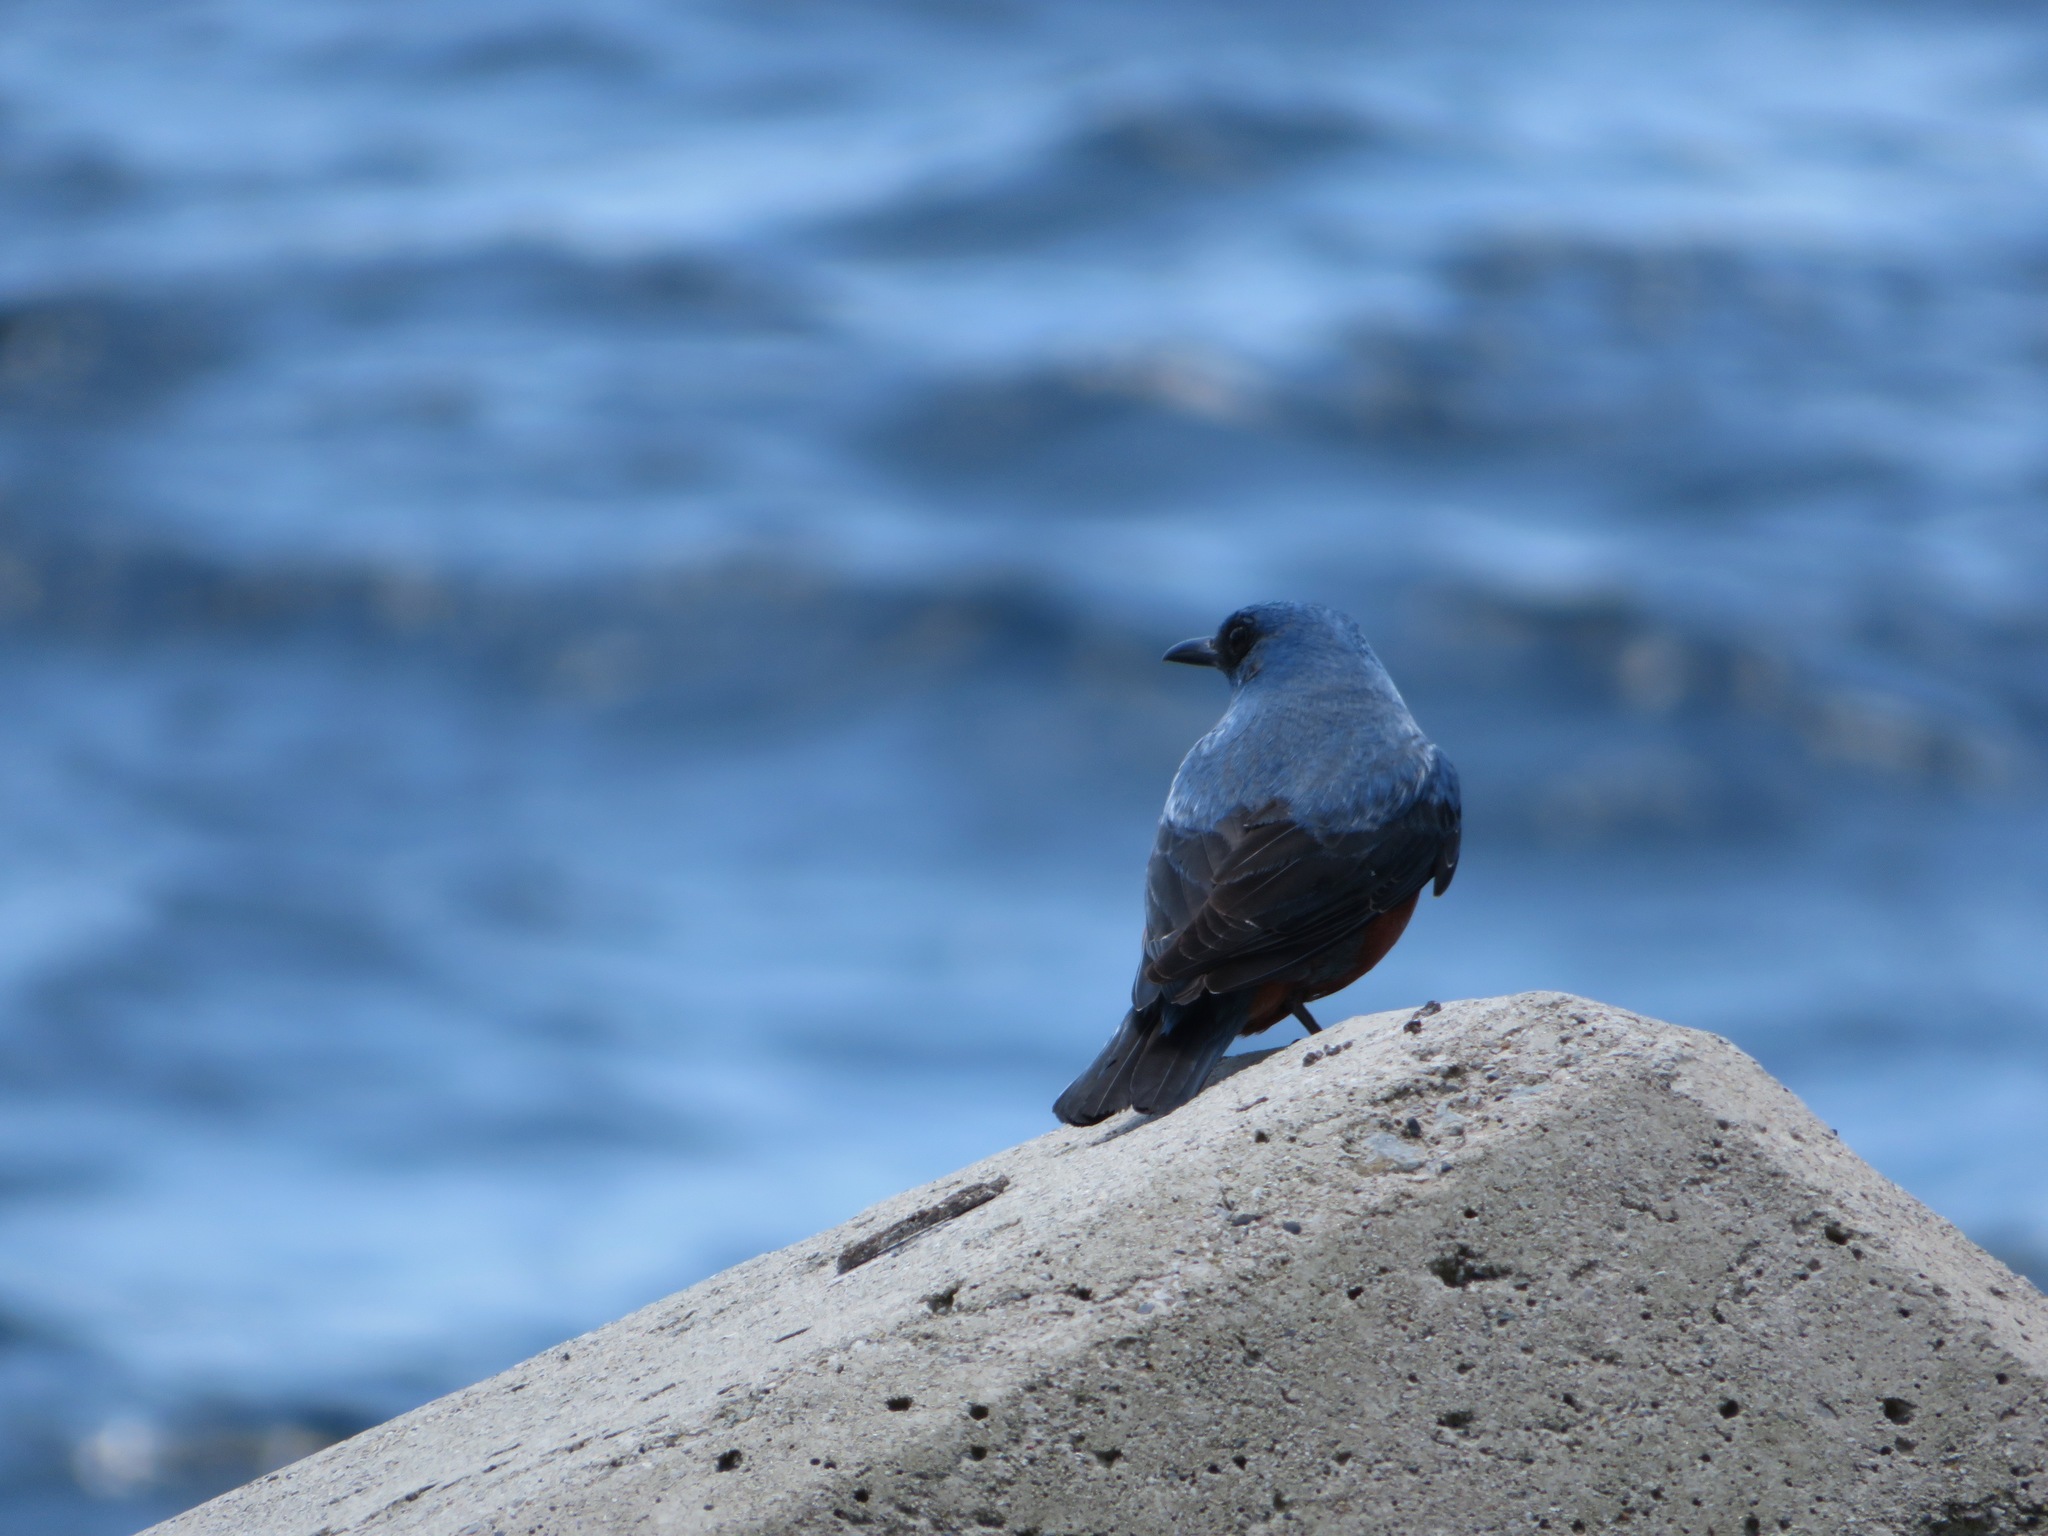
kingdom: Animalia
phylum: Chordata
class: Aves
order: Passeriformes
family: Muscicapidae
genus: Monticola
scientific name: Monticola solitarius
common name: Blue rock thrush
